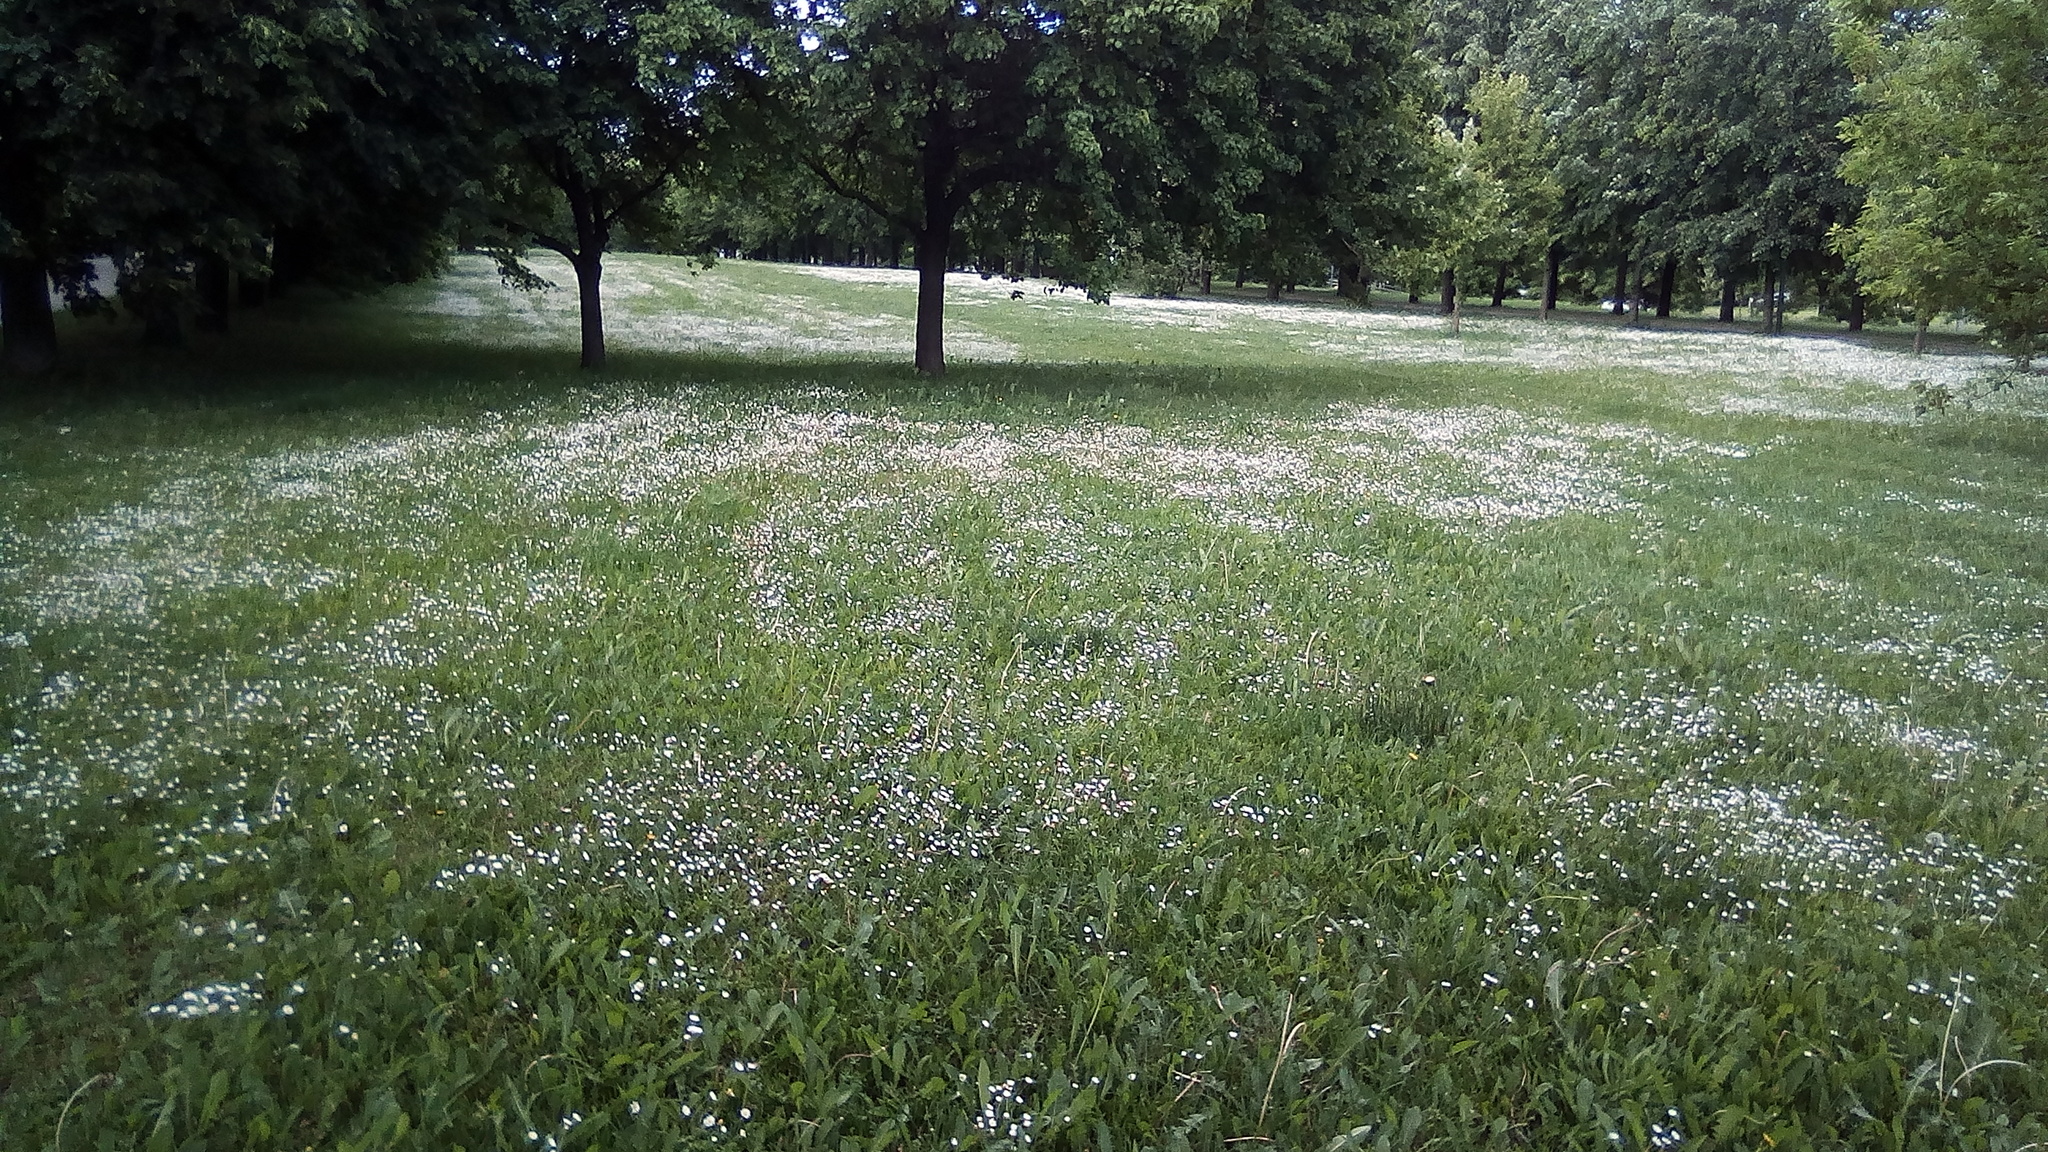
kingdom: Plantae
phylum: Tracheophyta
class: Magnoliopsida
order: Asterales
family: Asteraceae
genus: Bellis
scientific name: Bellis perennis
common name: Lawndaisy
